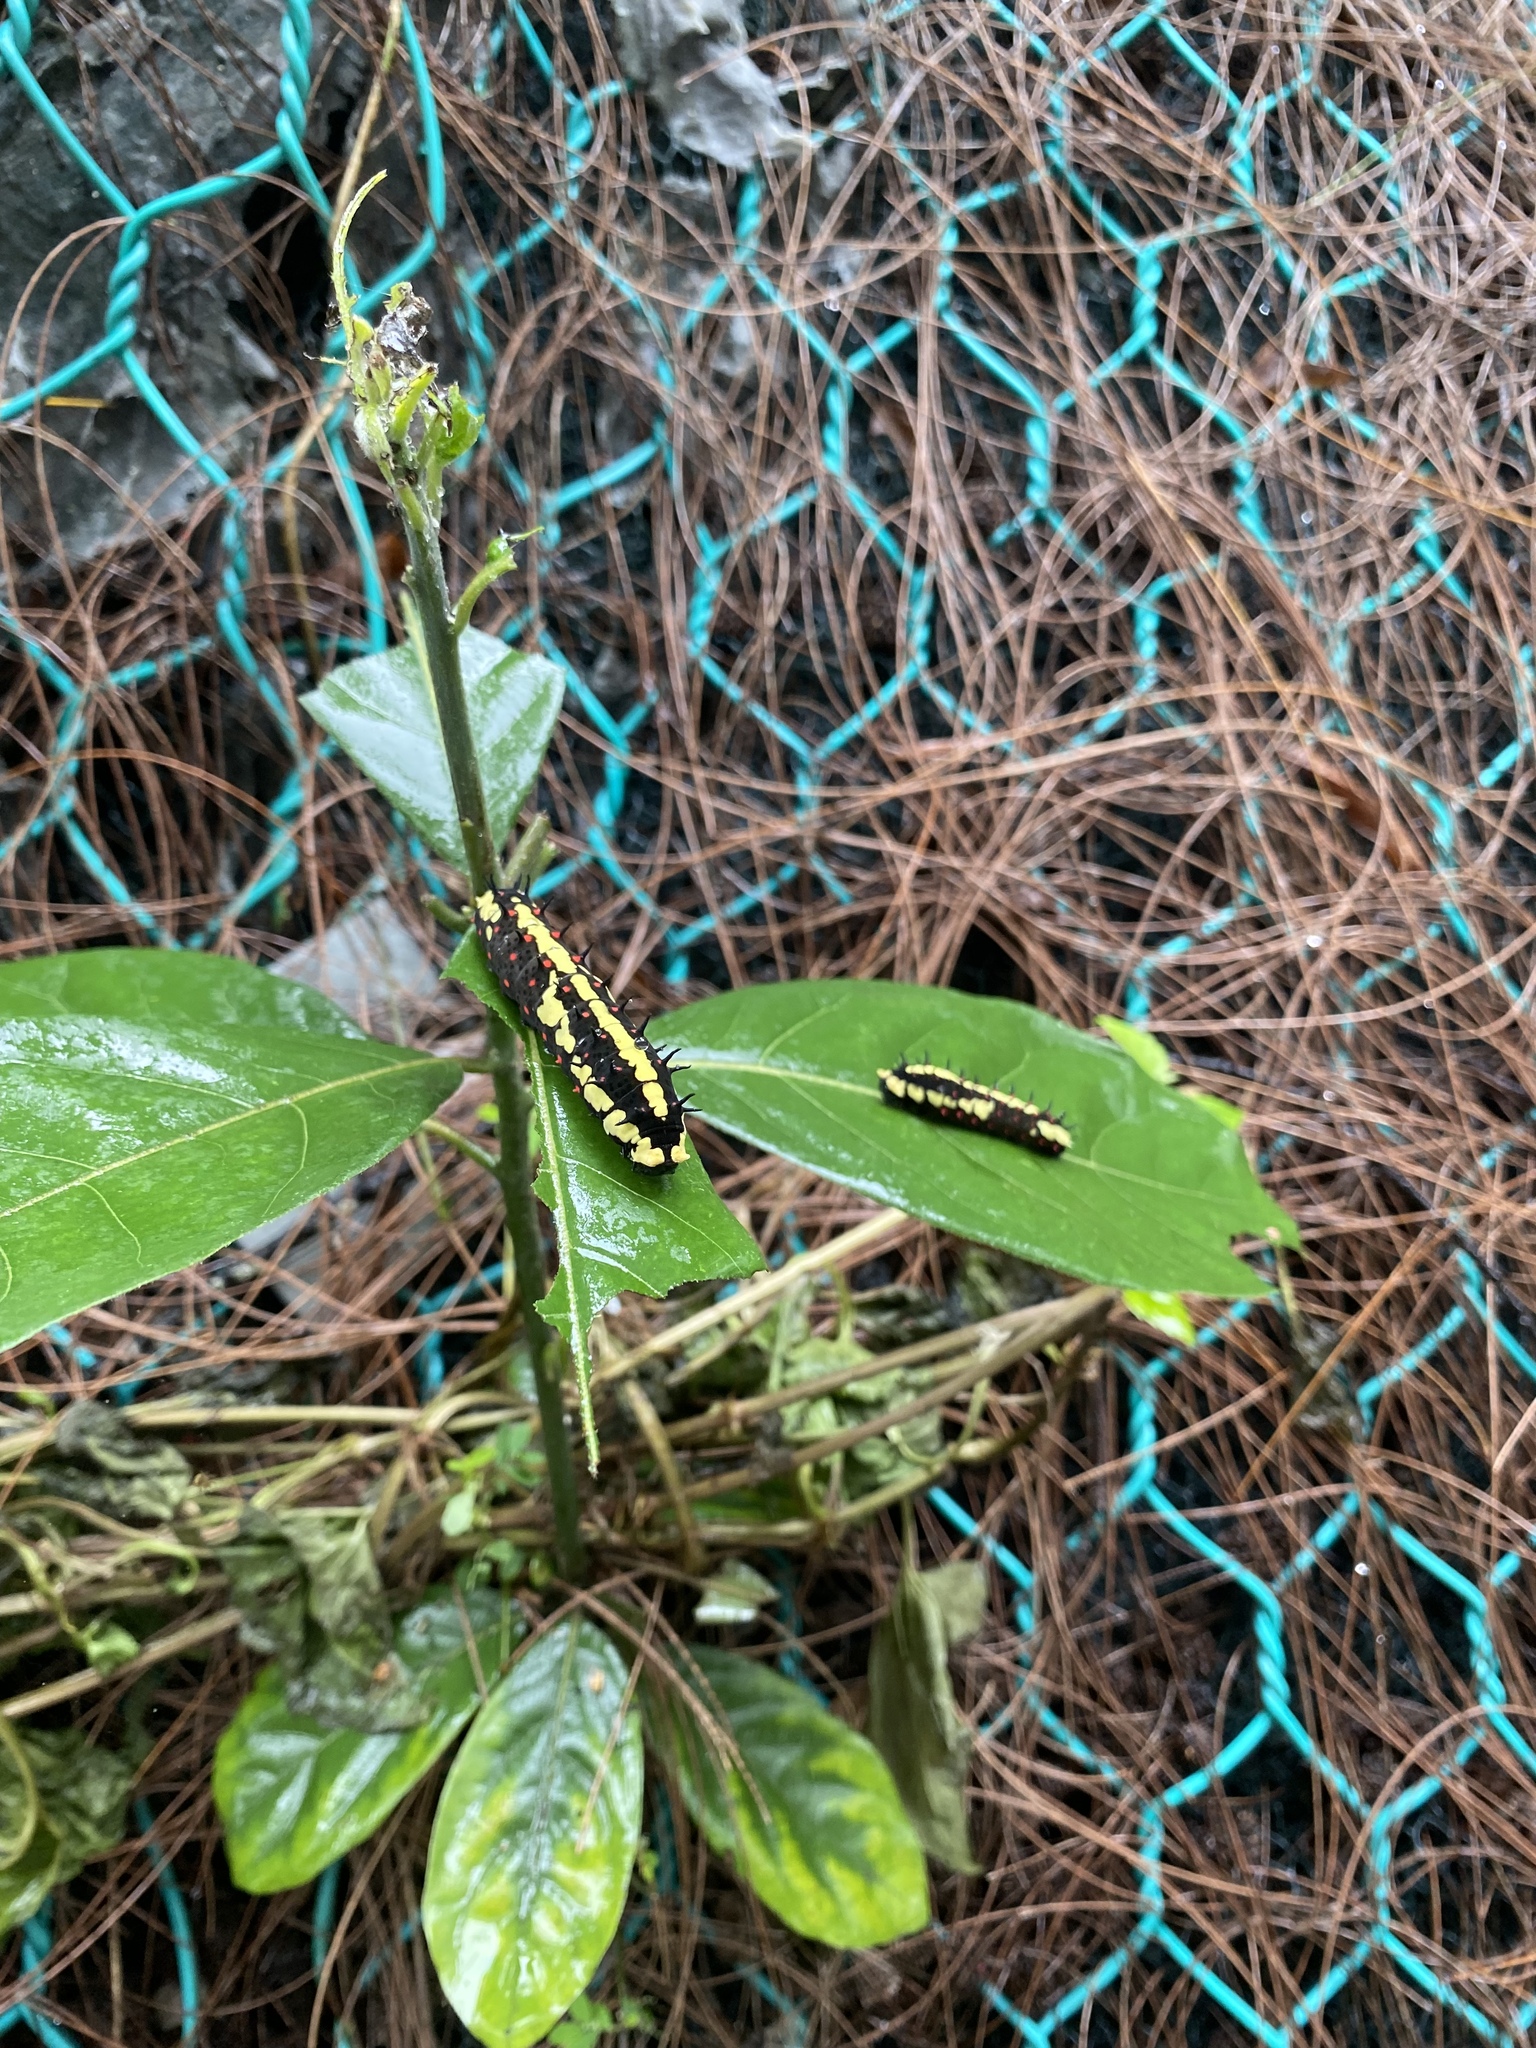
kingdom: Animalia
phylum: Arthropoda
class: Insecta
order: Lepidoptera
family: Papilionidae
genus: Chilasa
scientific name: Chilasa clytia
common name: Common mime
